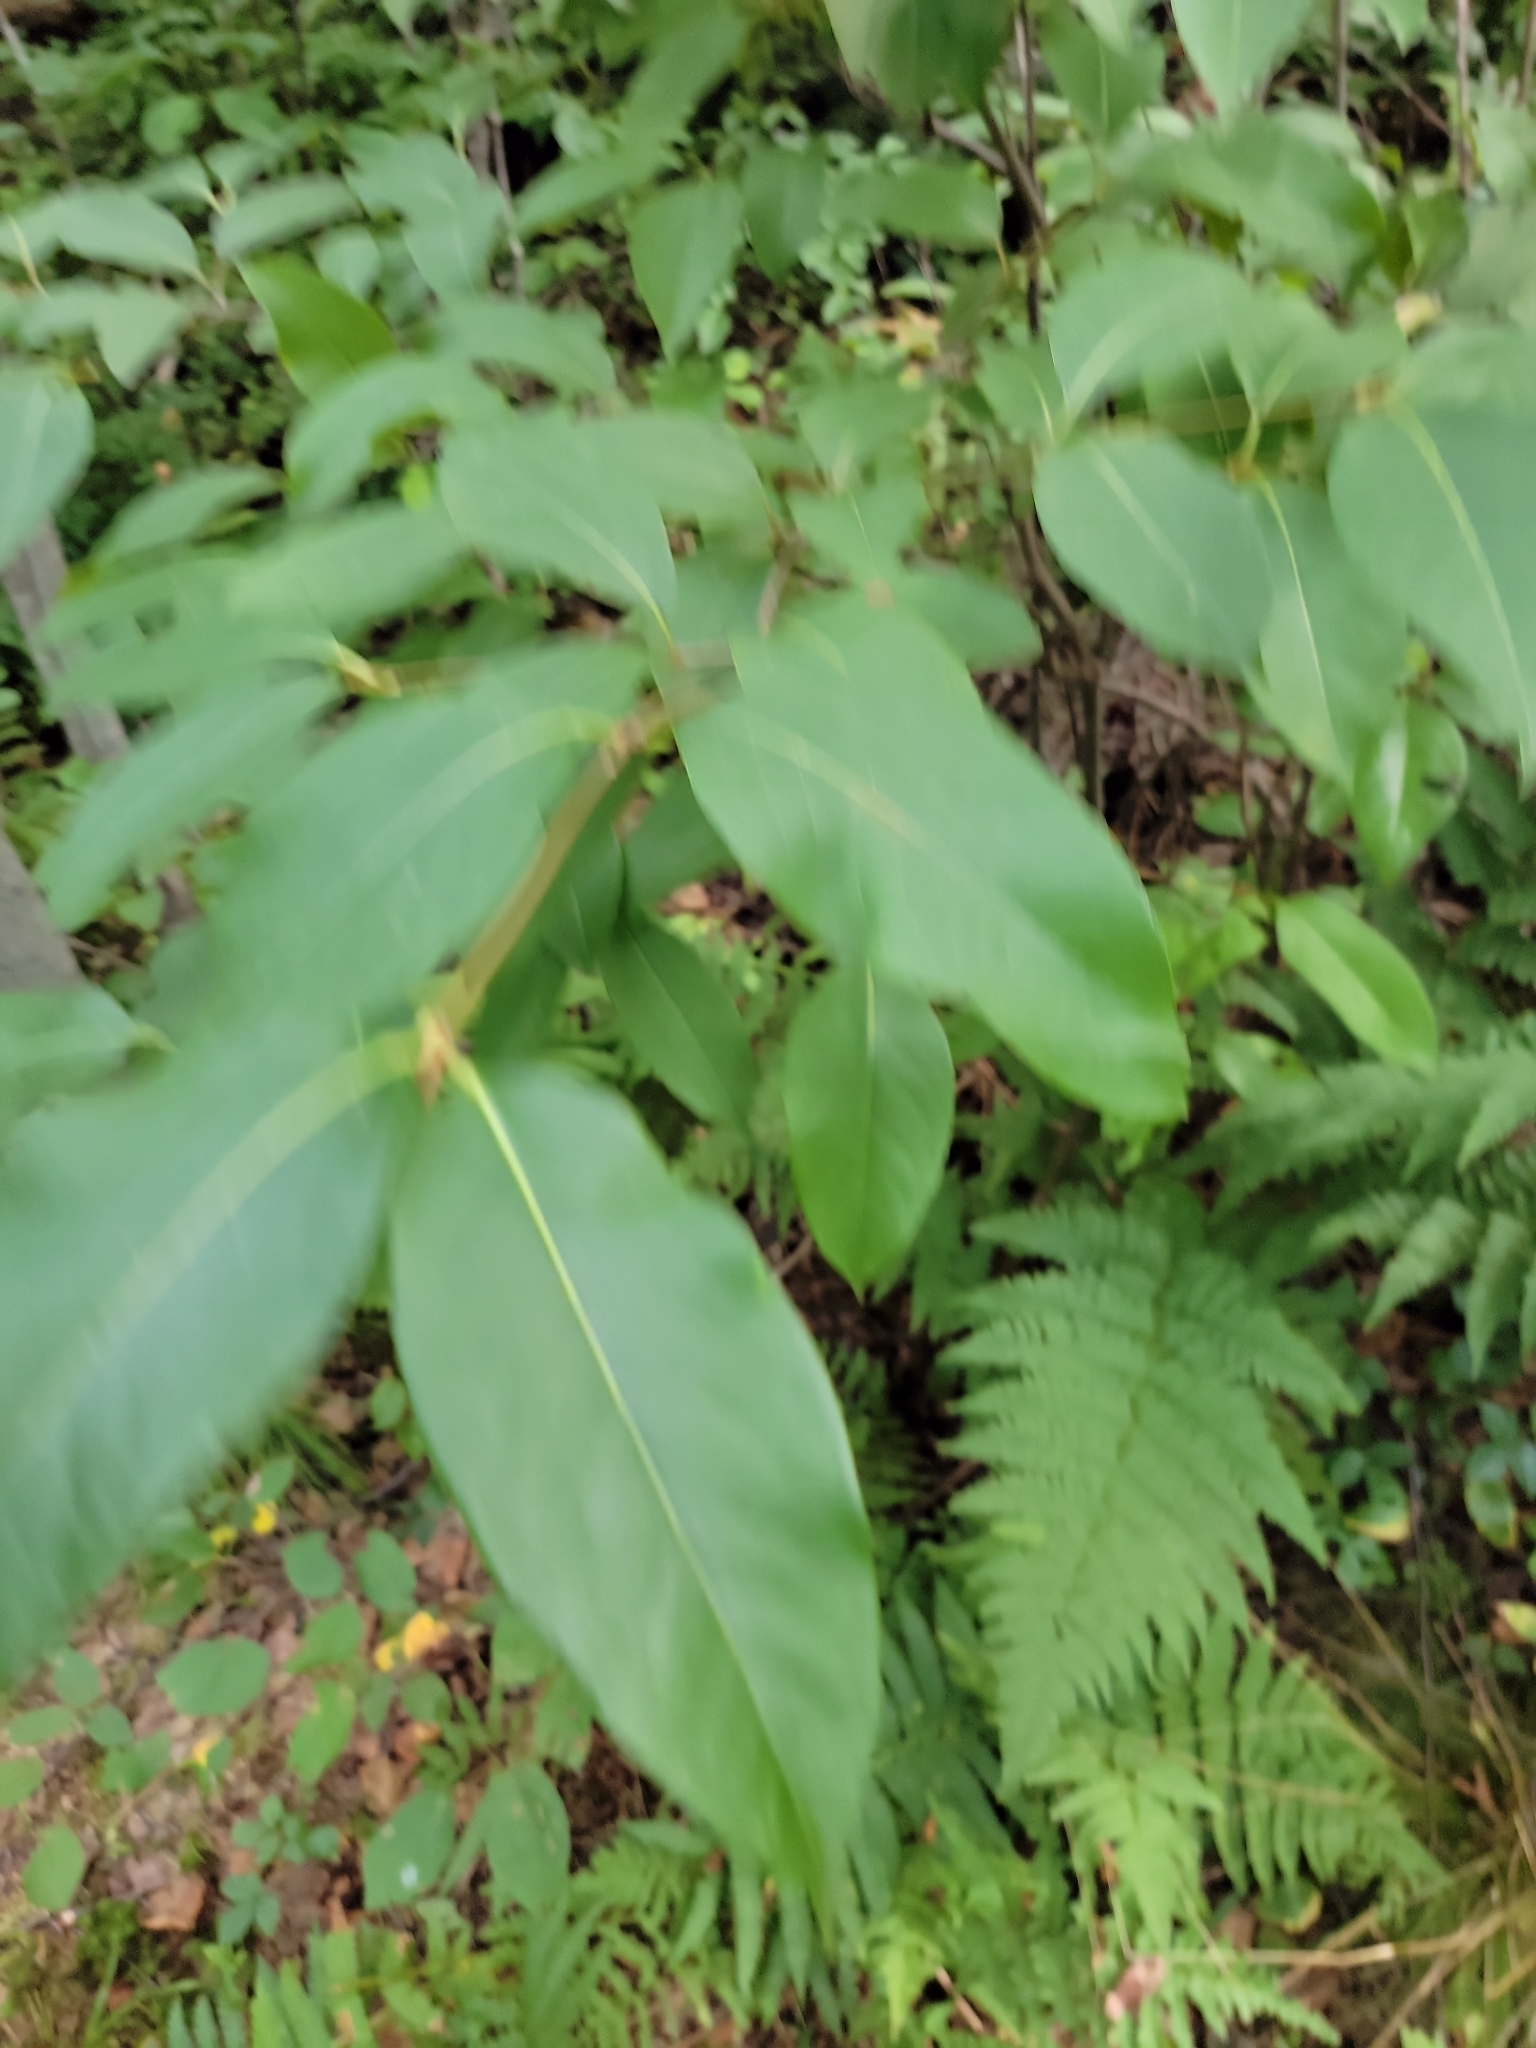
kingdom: Plantae
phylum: Tracheophyta
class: Magnoliopsida
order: Dipsacales
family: Viburnaceae
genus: Viburnum
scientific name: Viburnum cassinoides
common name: Swamp haw
